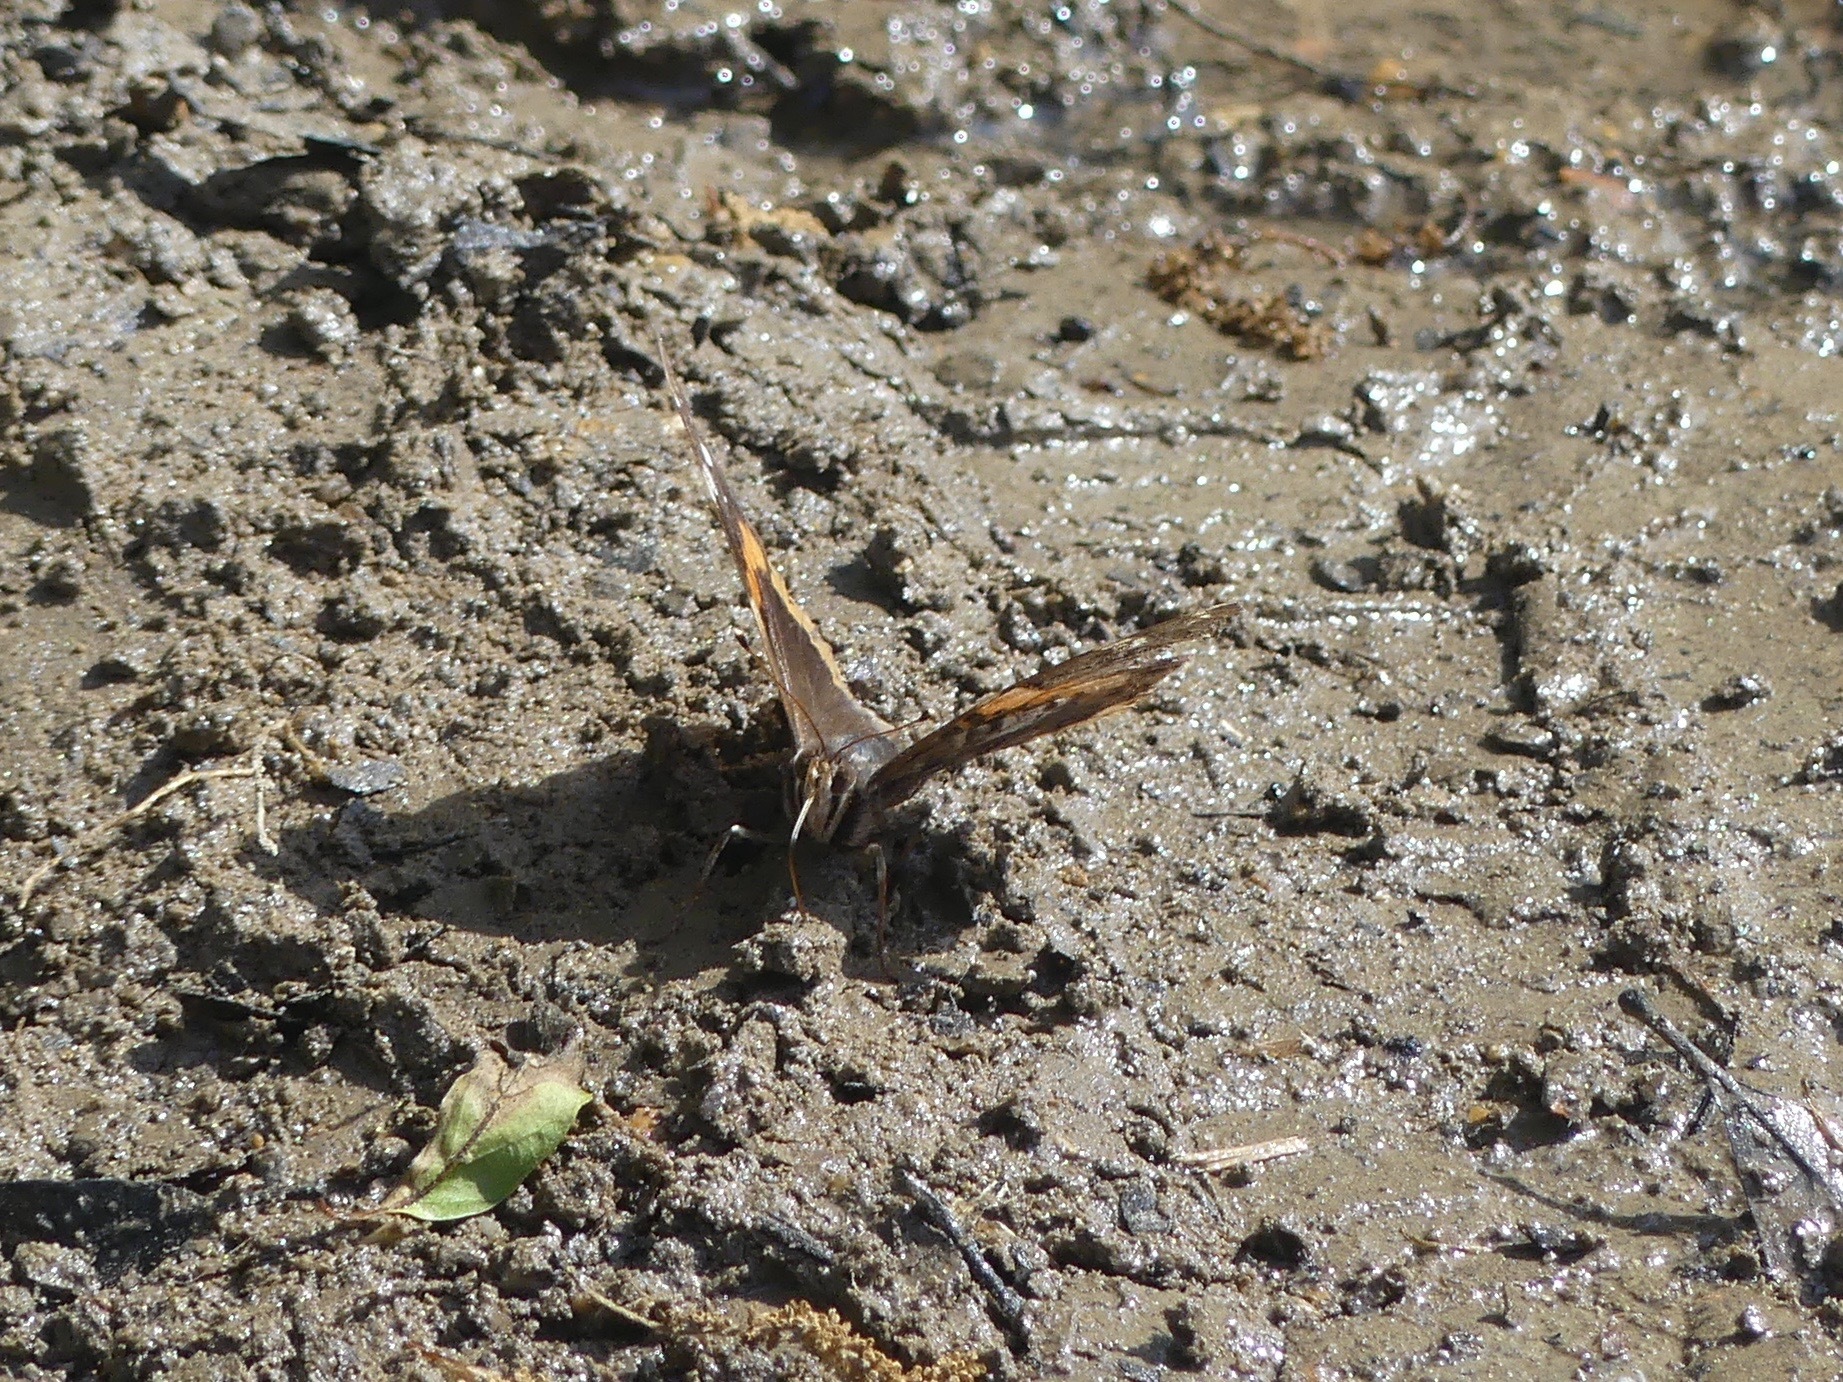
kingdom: Animalia
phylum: Arthropoda
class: Insecta
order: Lepidoptera
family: Nymphalidae
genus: Vanessa
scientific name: Vanessa atalanta
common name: Red admiral
